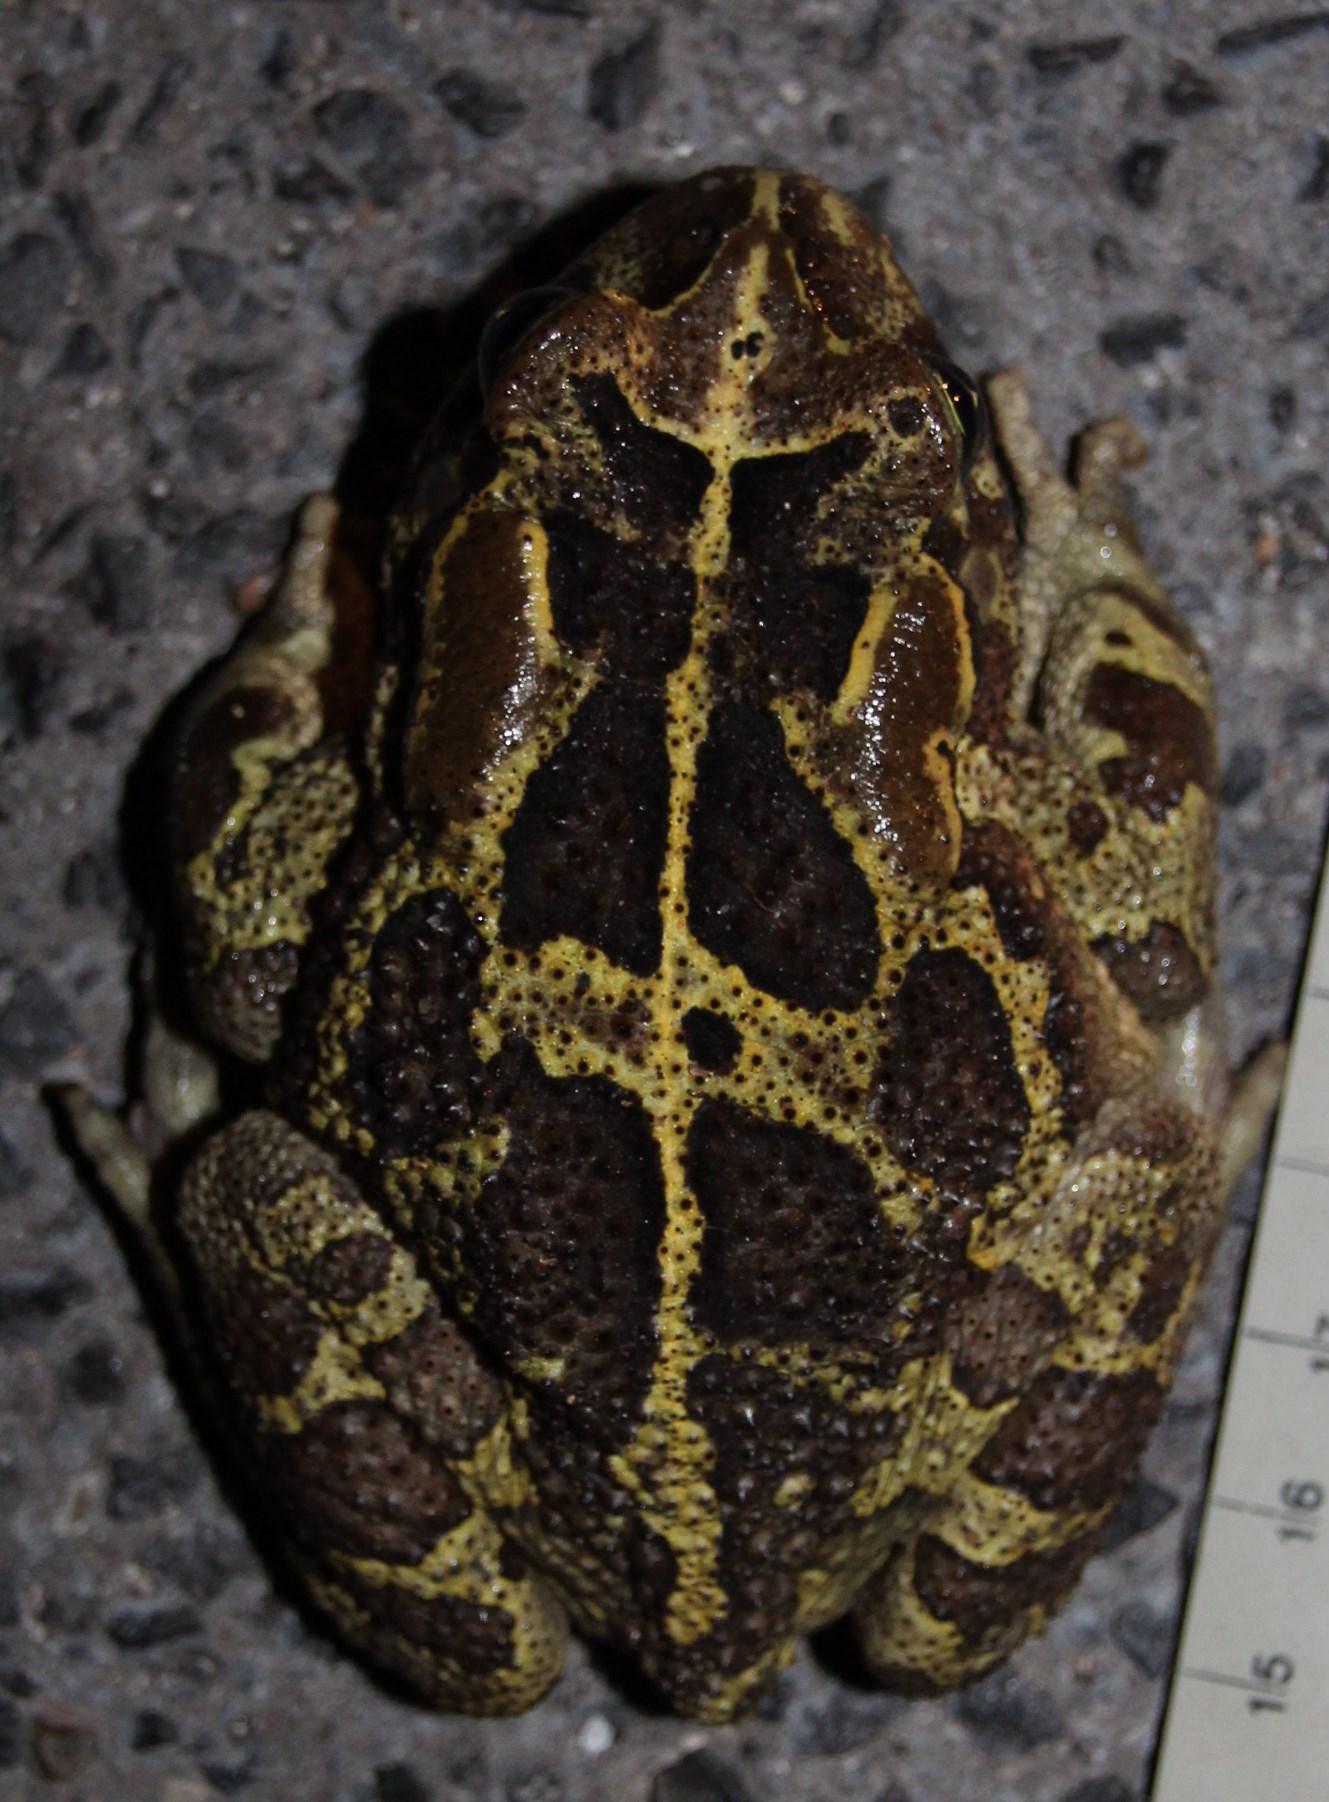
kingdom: Animalia
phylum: Chordata
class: Amphibia
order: Anura
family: Bufonidae
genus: Sclerophrys
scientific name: Sclerophrys pantherina
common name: Panther toad
